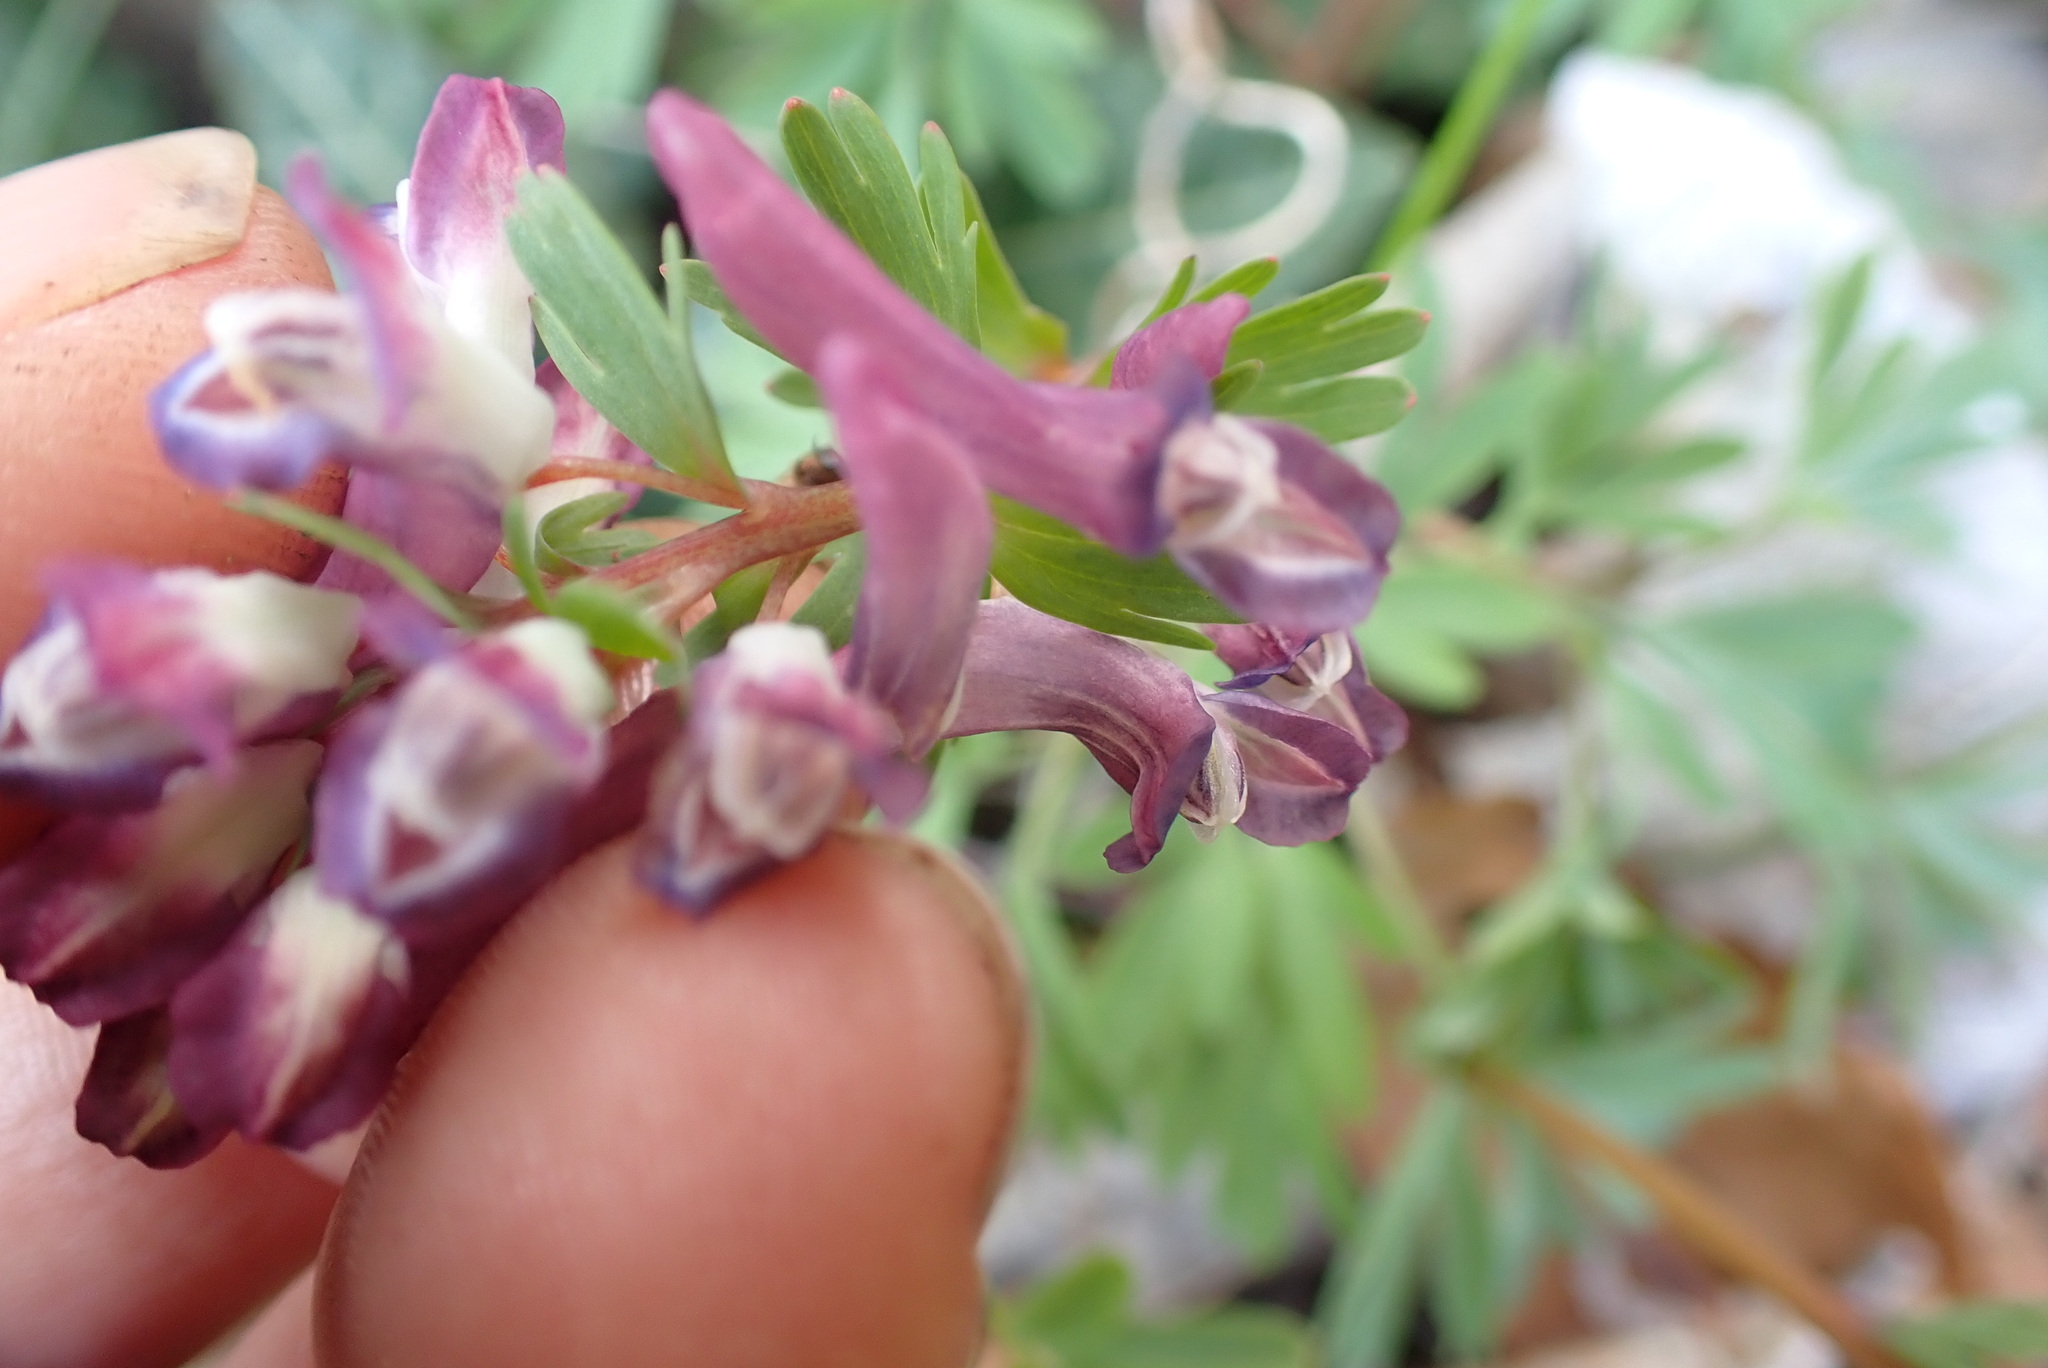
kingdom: Plantae
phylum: Tracheophyta
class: Magnoliopsida
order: Ranunculales
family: Papaveraceae
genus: Corydalis
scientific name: Corydalis solida
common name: Bird-in-a-bush
